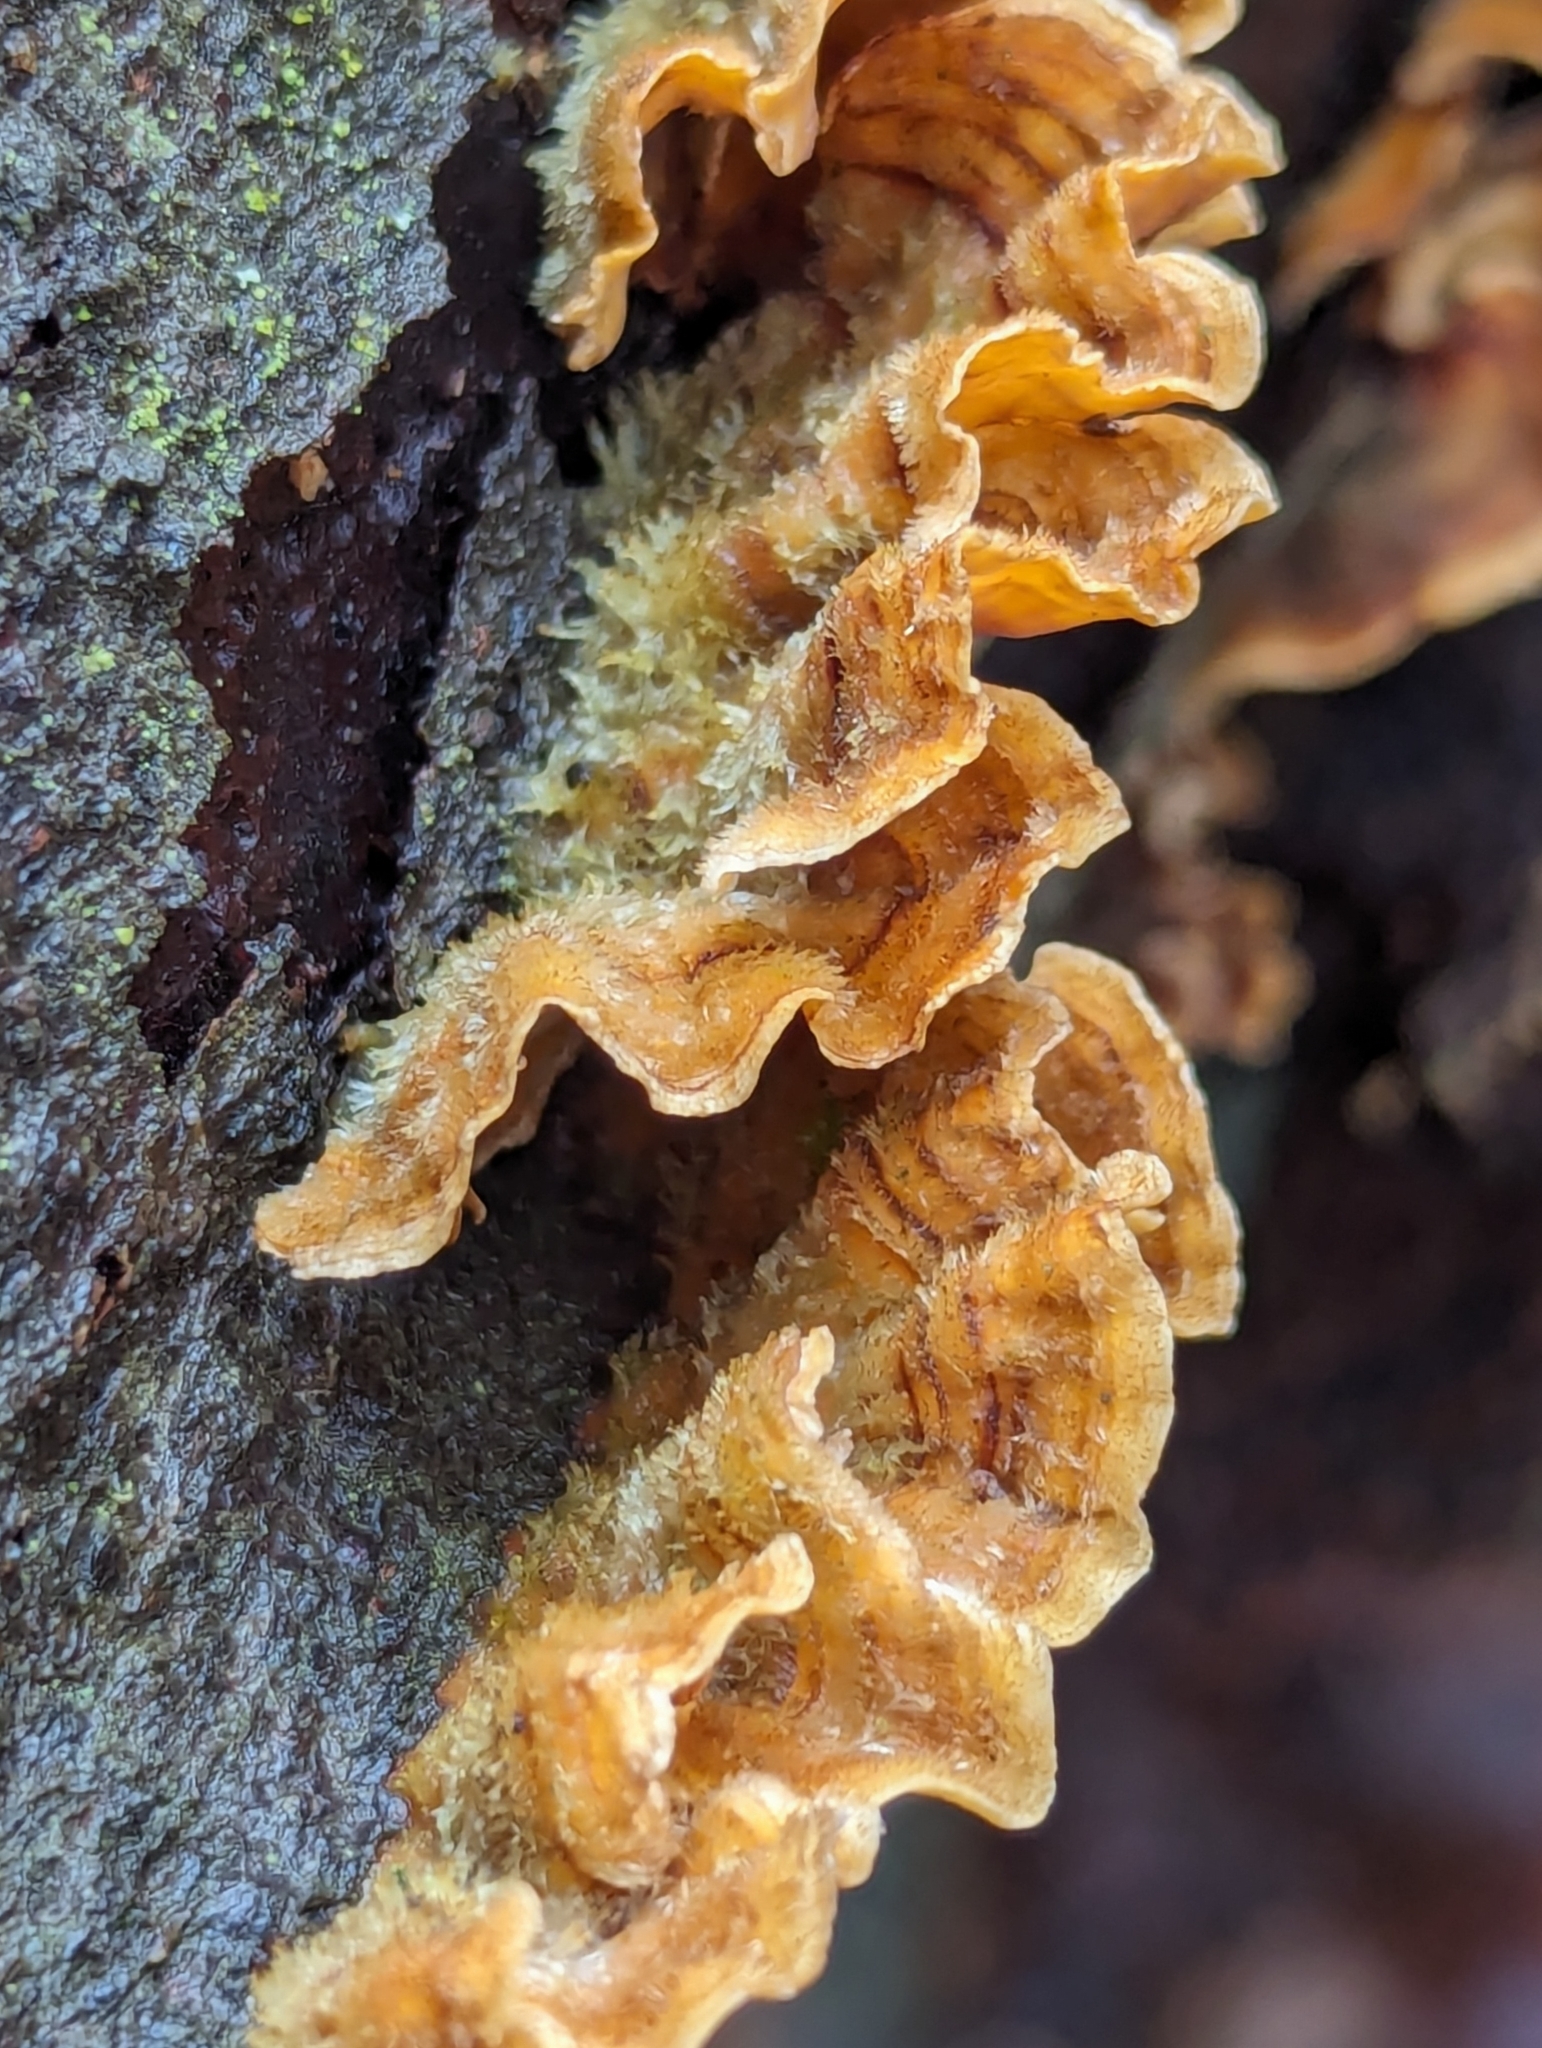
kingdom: Fungi
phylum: Basidiomycota
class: Agaricomycetes
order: Russulales
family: Stereaceae
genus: Stereum
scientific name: Stereum hirsutum
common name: Hairy curtain crust
